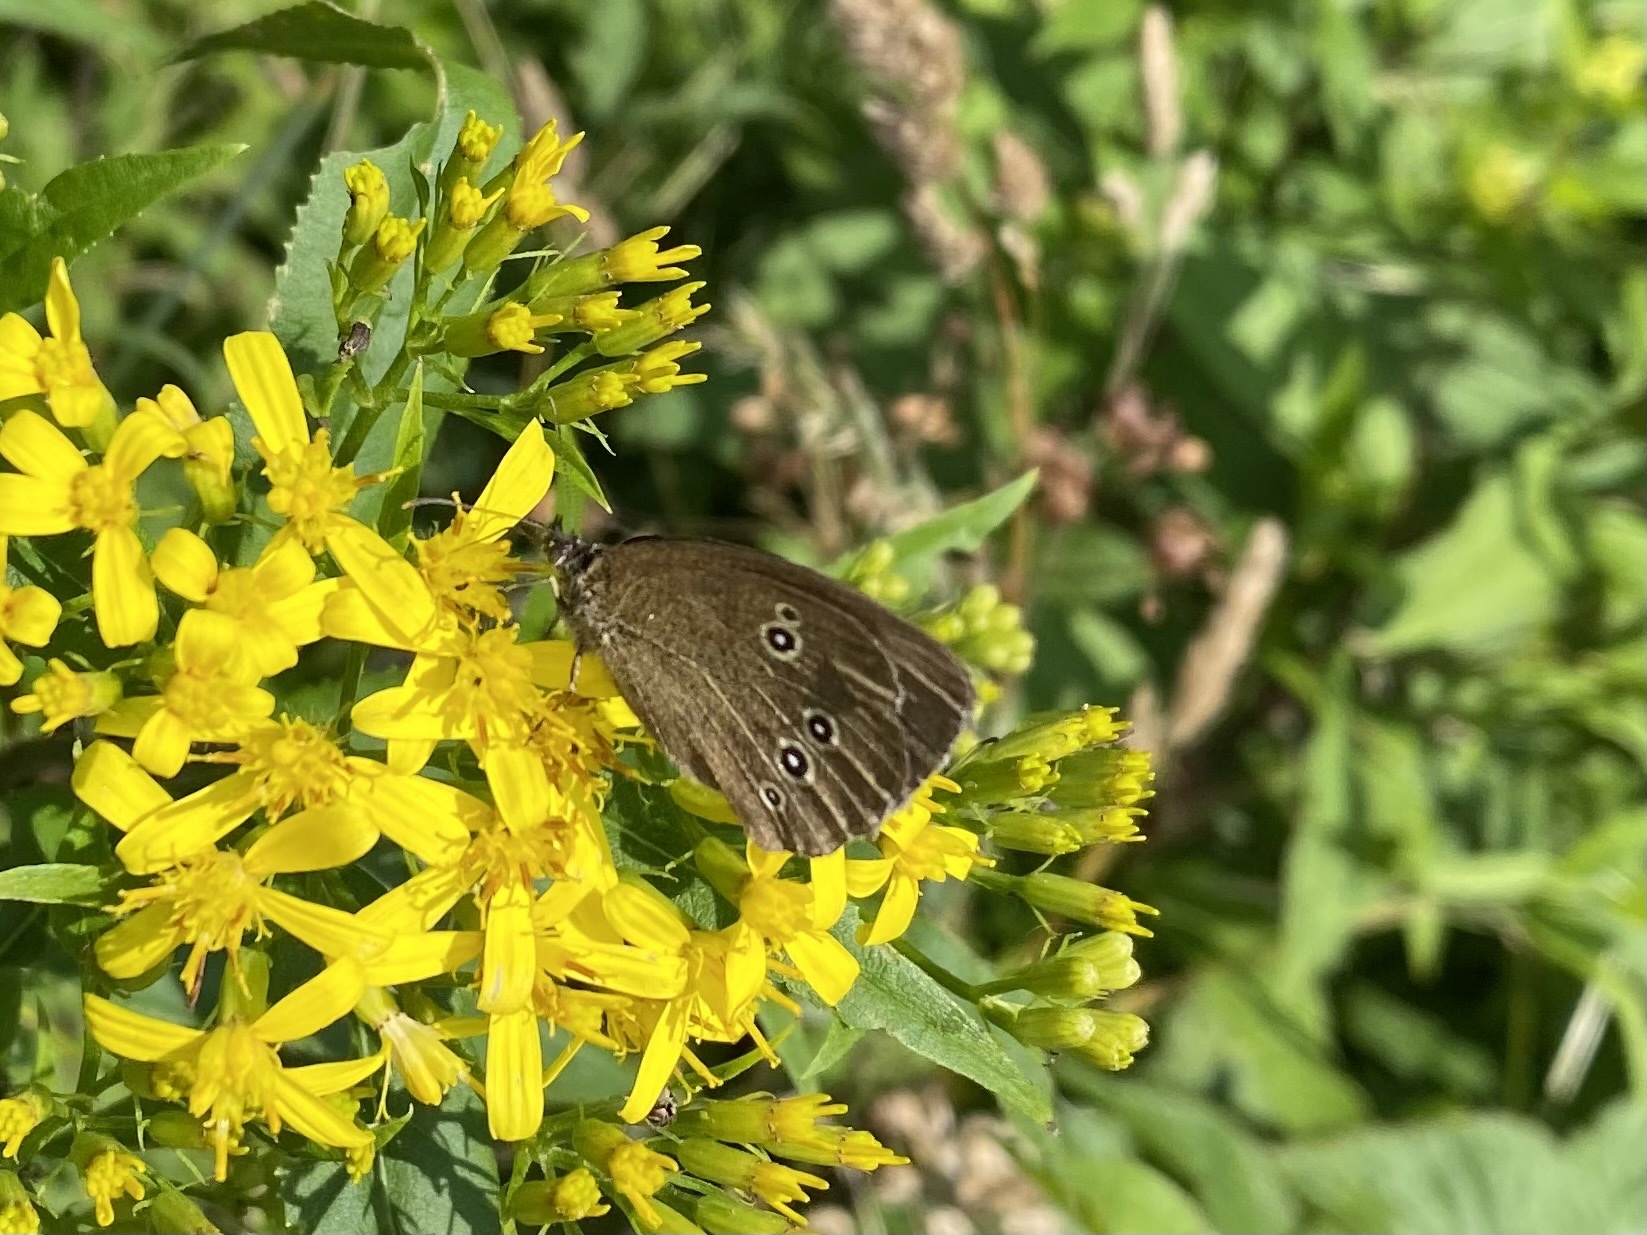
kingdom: Animalia
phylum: Arthropoda
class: Insecta
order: Lepidoptera
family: Nymphalidae
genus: Aphantopus
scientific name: Aphantopus hyperantus
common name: Ringlet
